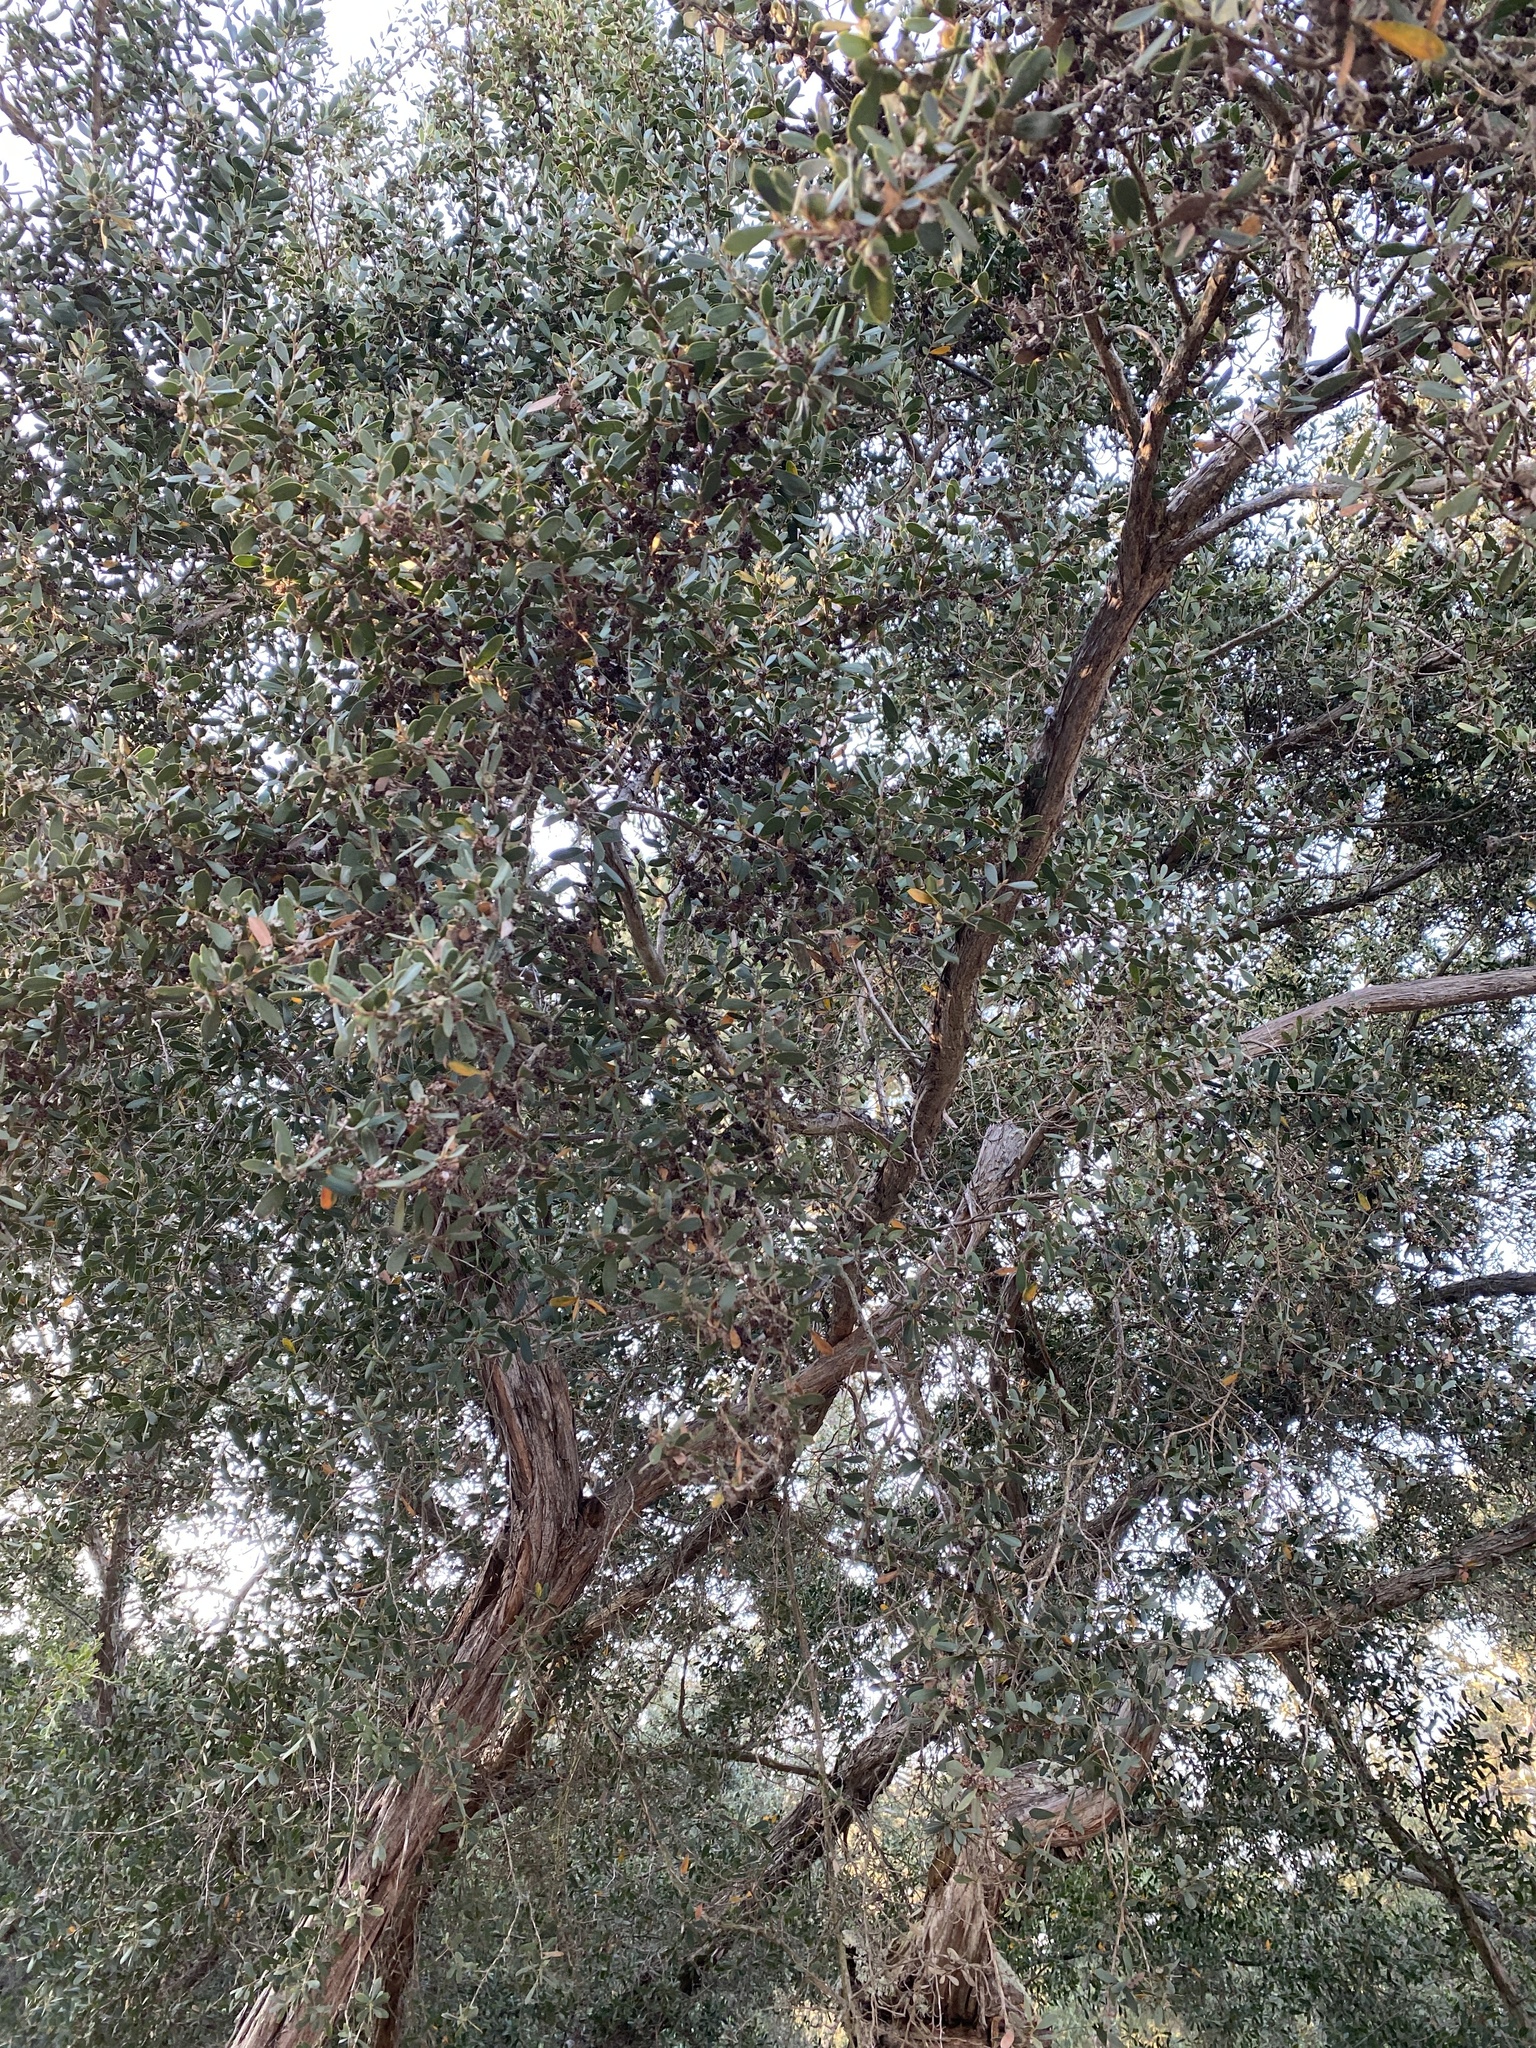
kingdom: Plantae
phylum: Tracheophyta
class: Magnoliopsida
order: Myrtales
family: Myrtaceae
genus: Leptospermum
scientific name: Leptospermum laevigatum
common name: Australian teatree
